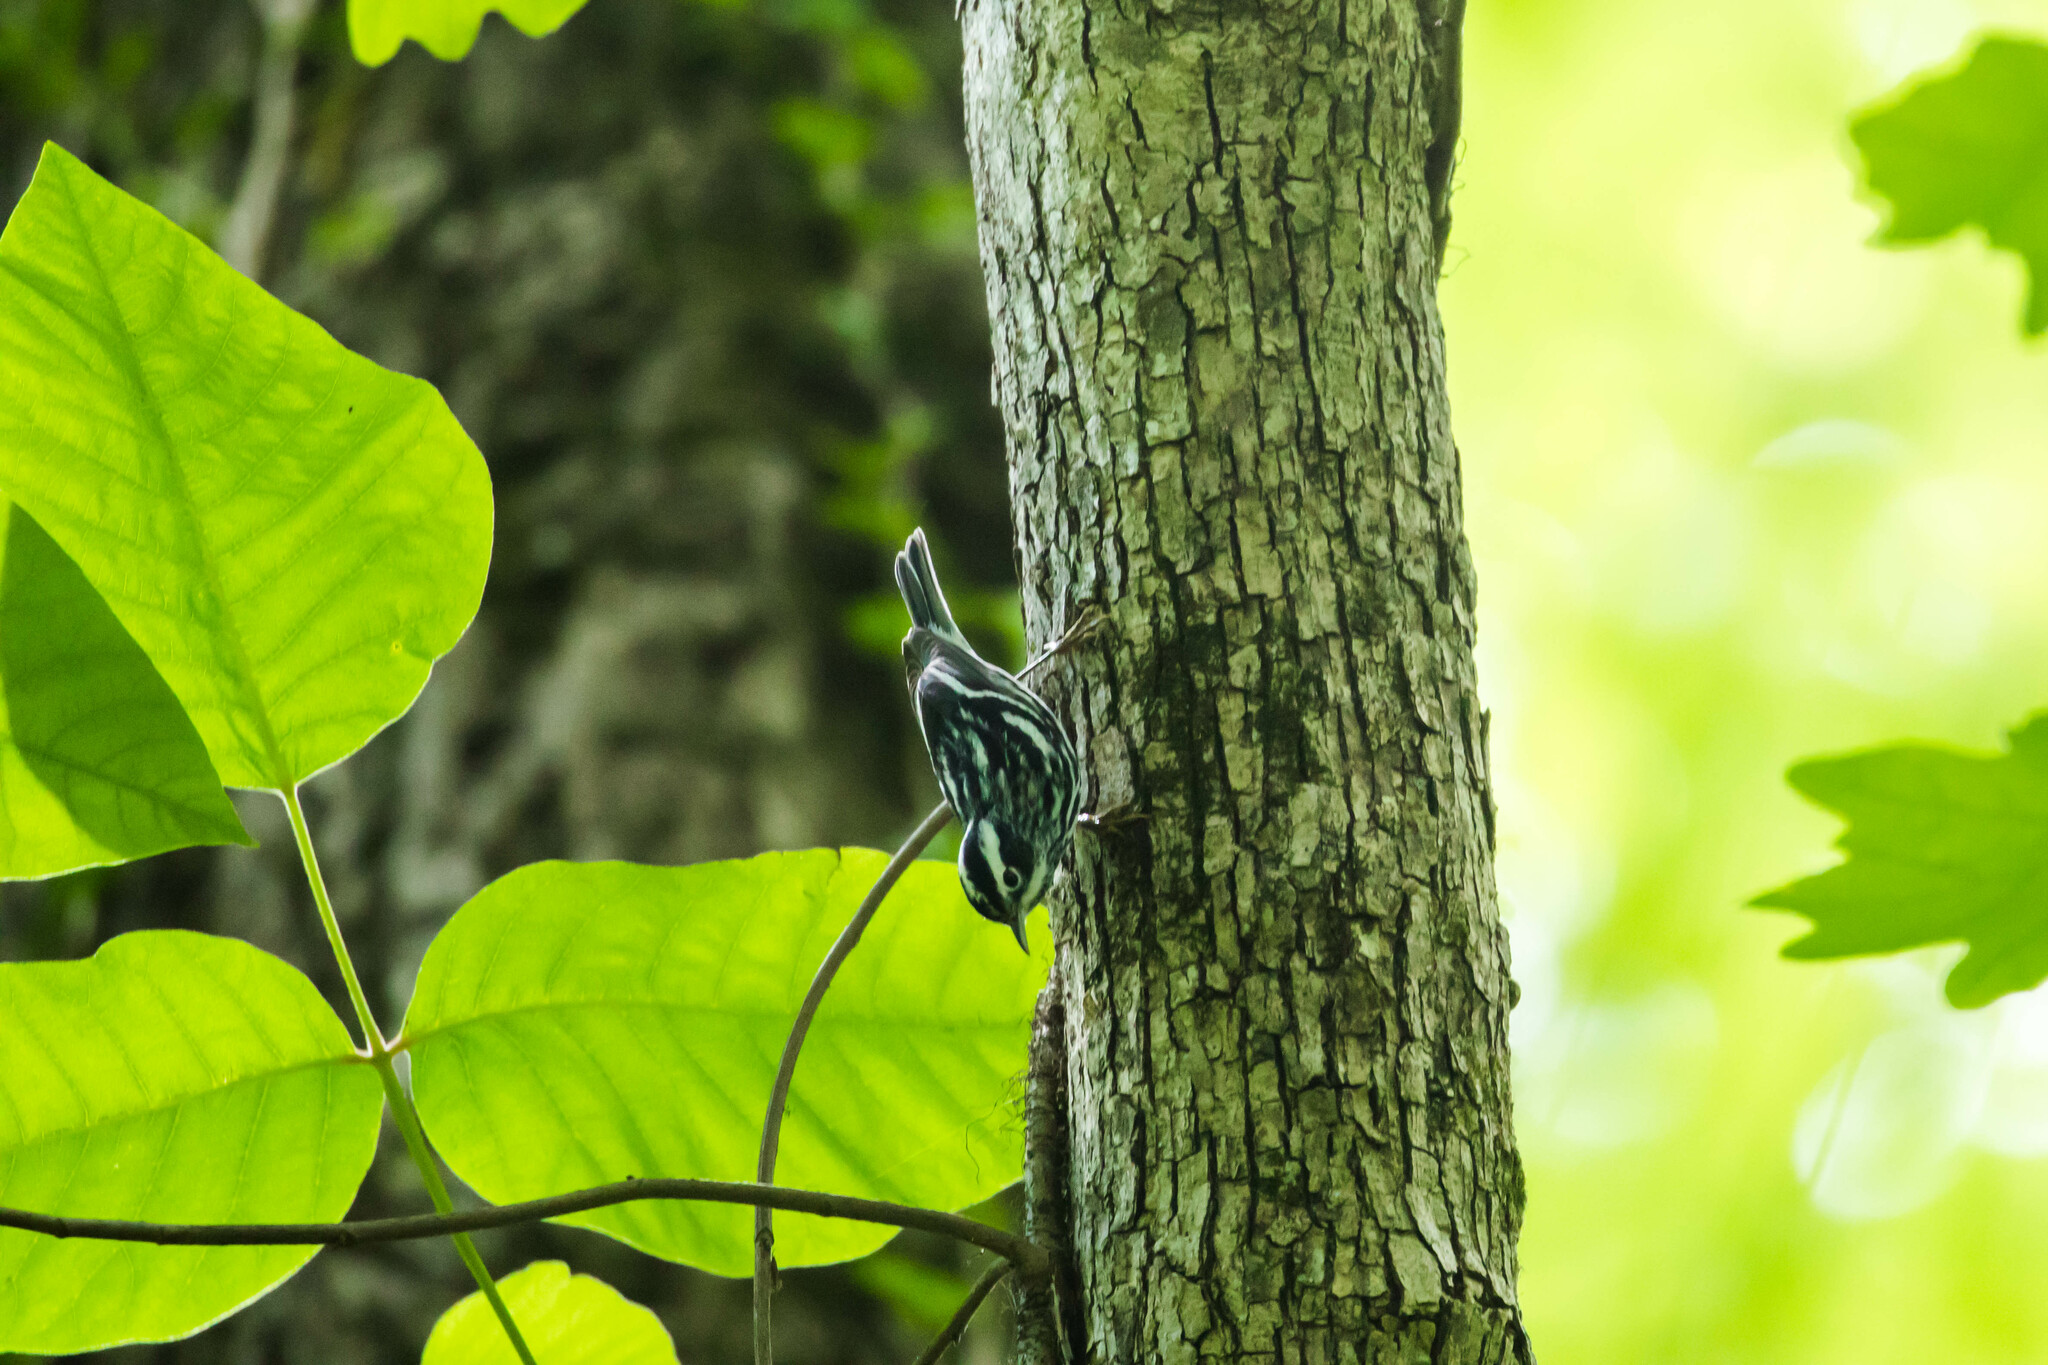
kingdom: Animalia
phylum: Chordata
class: Aves
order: Passeriformes
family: Parulidae
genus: Mniotilta
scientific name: Mniotilta varia
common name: Black-and-white warbler
